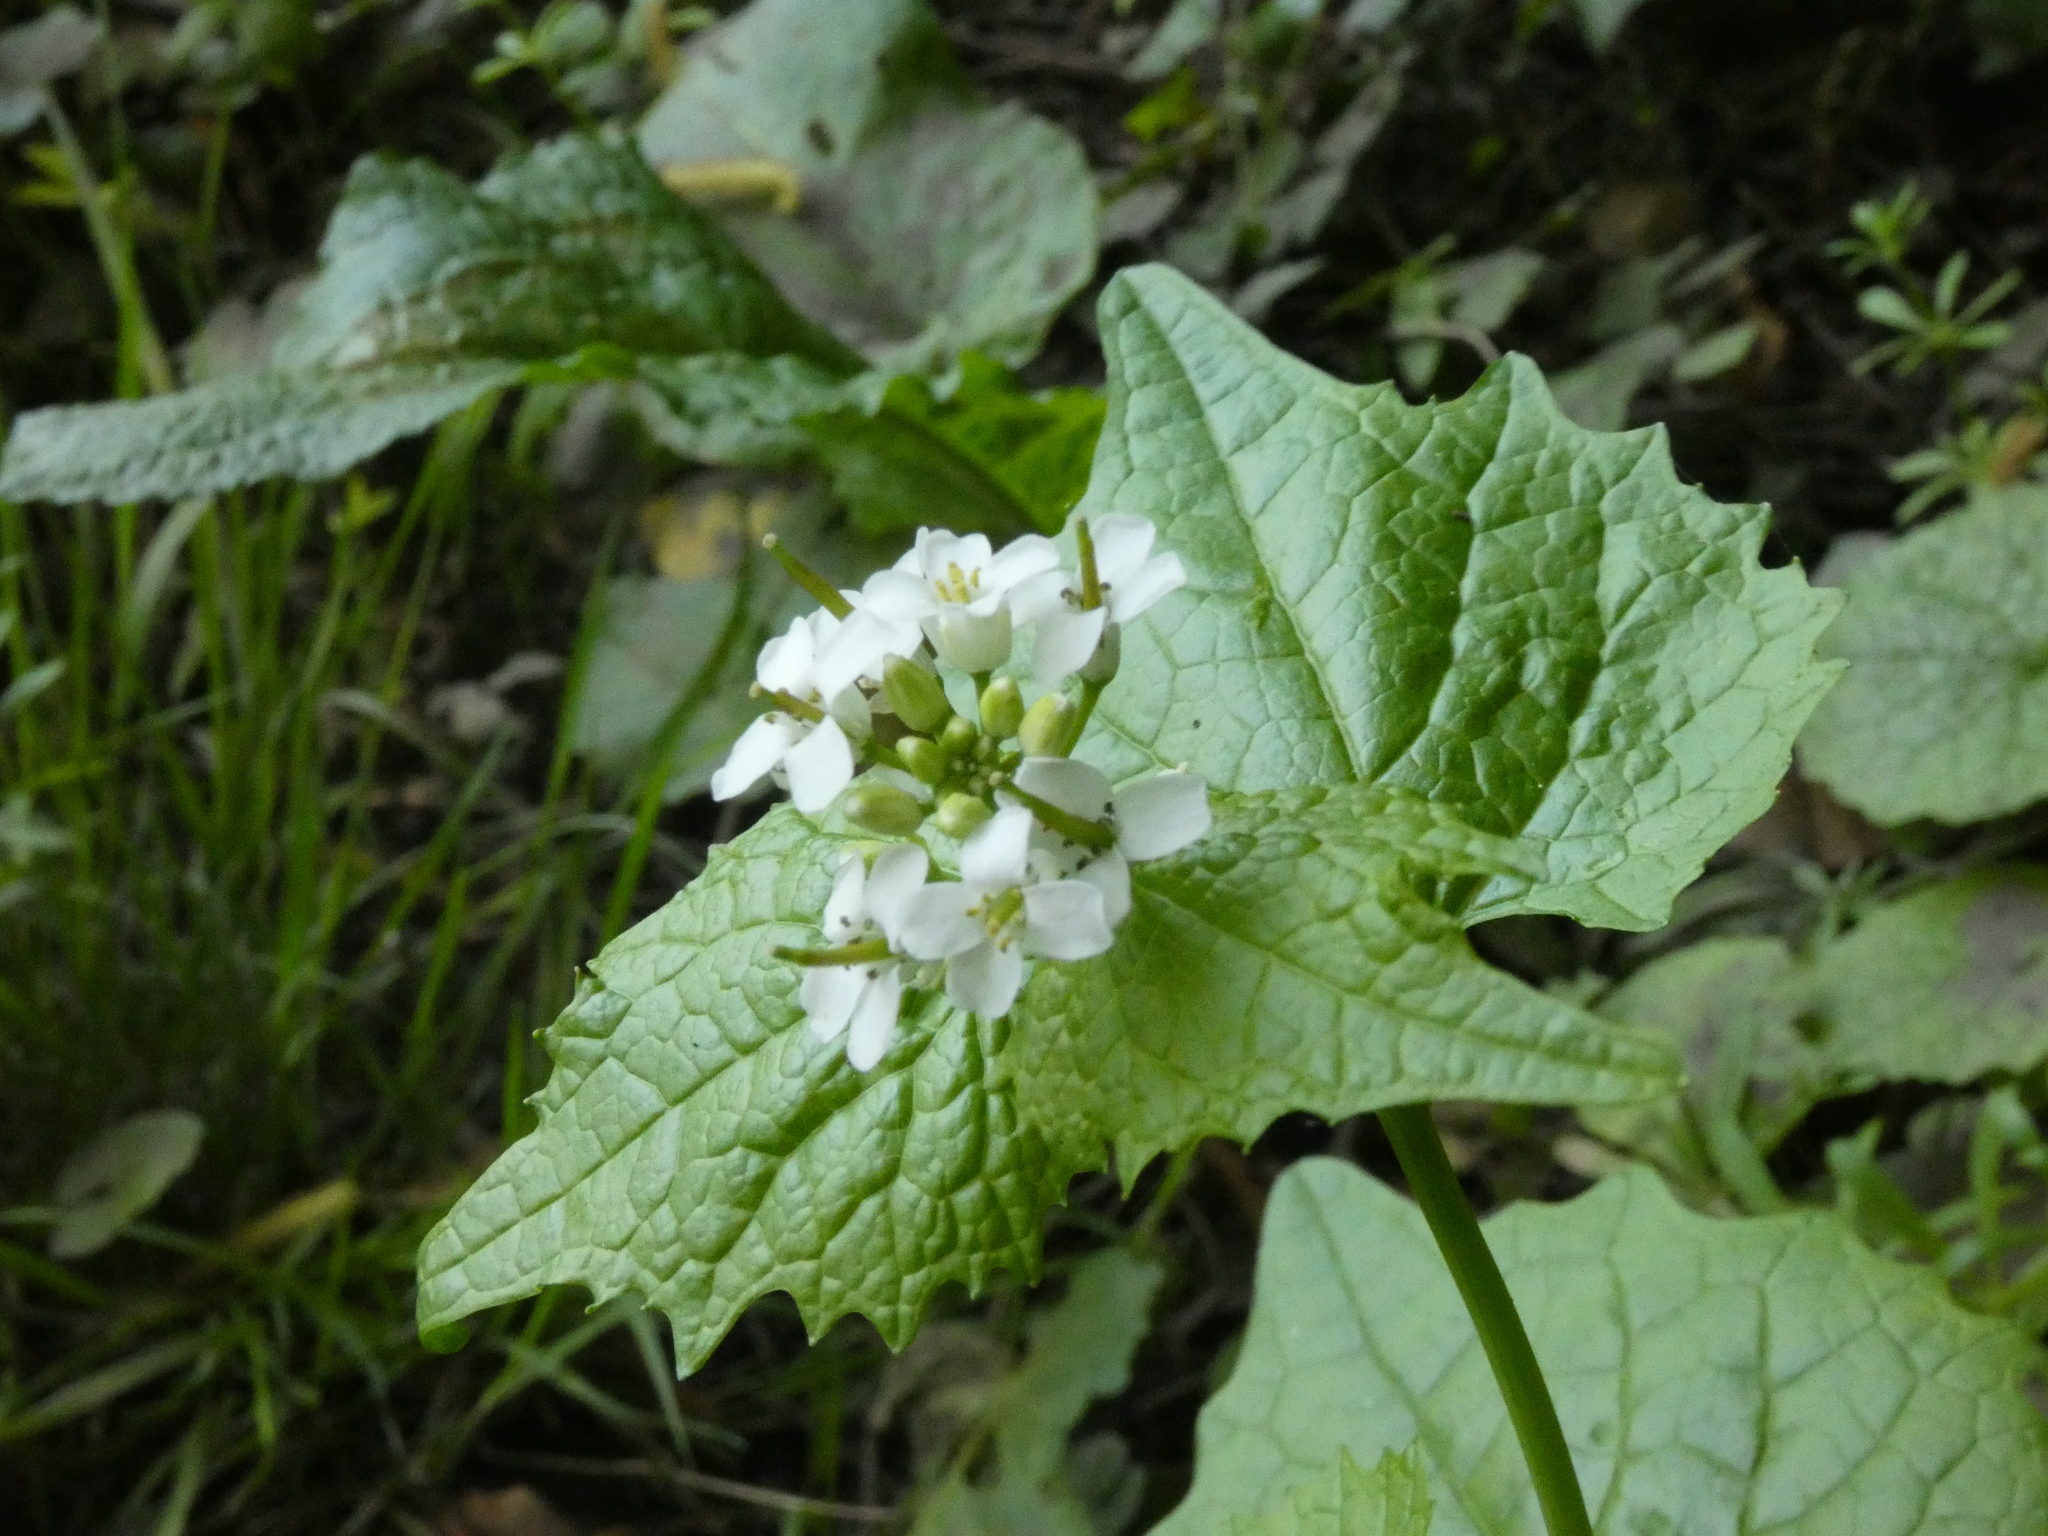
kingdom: Plantae
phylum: Tracheophyta
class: Magnoliopsida
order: Brassicales
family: Brassicaceae
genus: Alliaria
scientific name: Alliaria petiolata
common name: Garlic mustard
